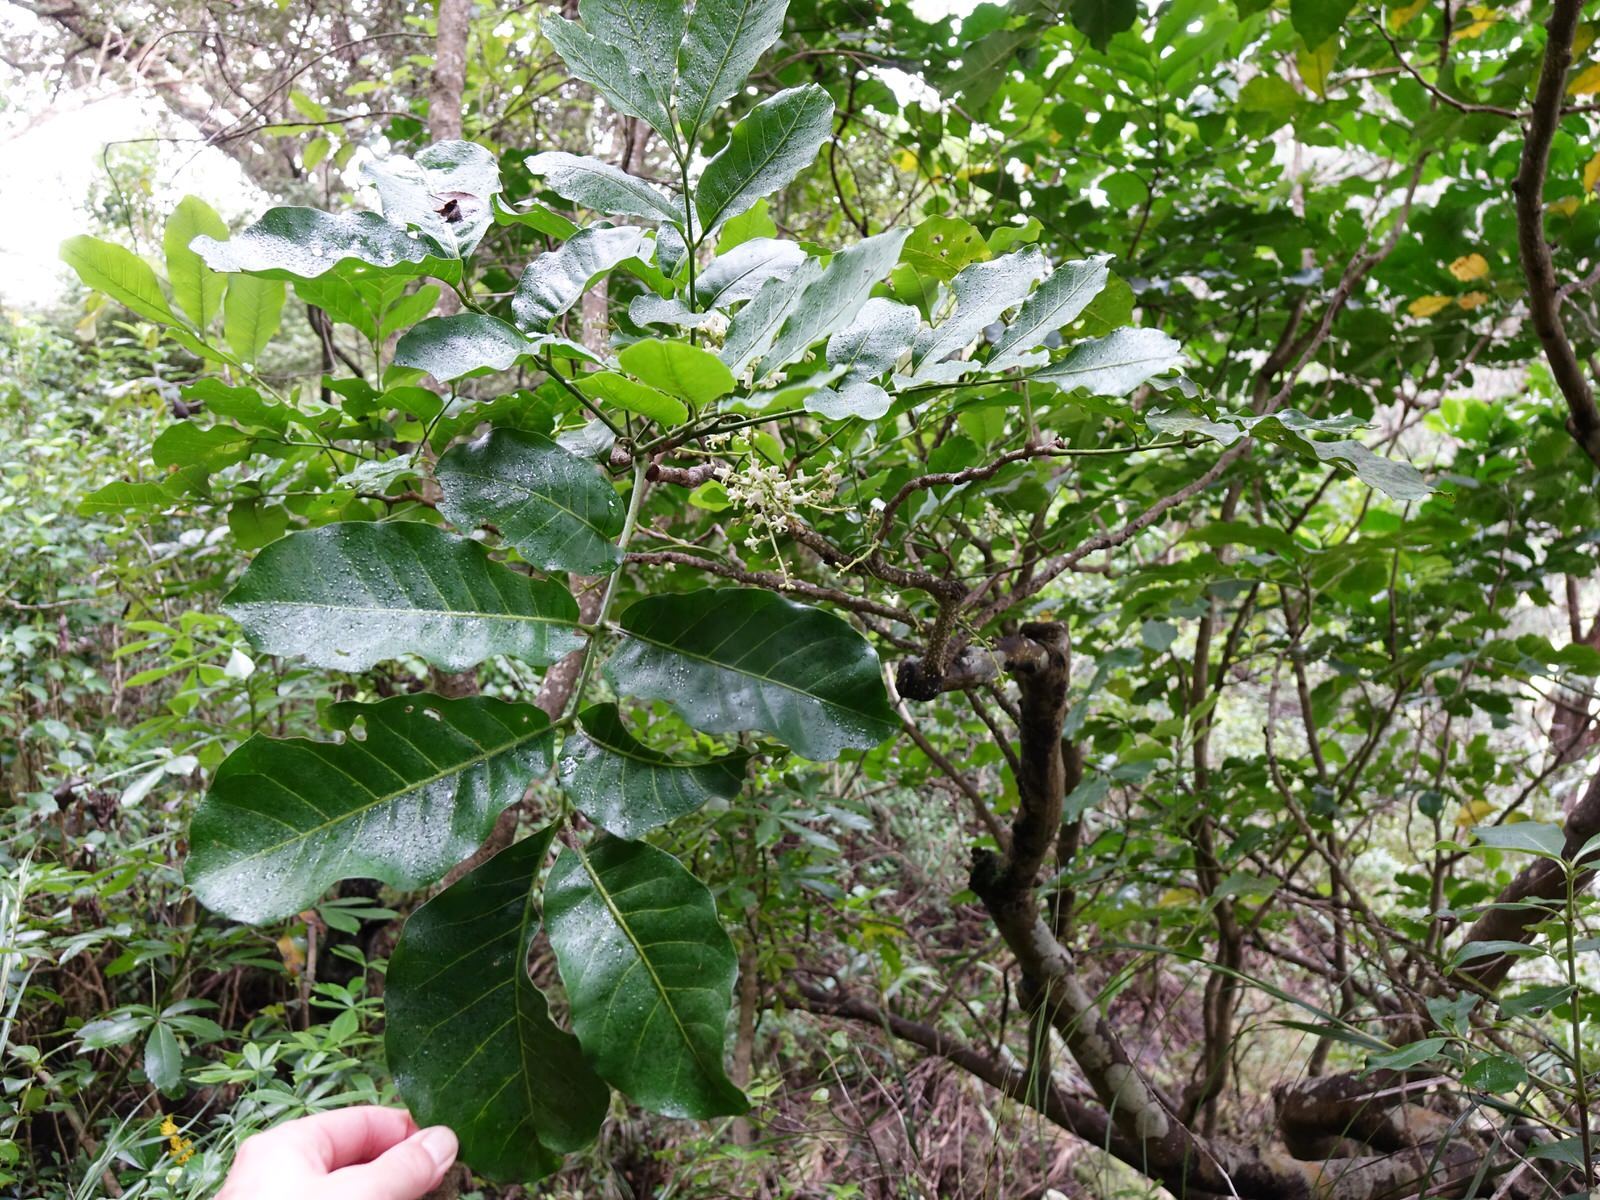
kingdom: Plantae
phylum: Tracheophyta
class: Magnoliopsida
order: Sapindales
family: Meliaceae
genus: Didymocheton
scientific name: Didymocheton spectabilis
